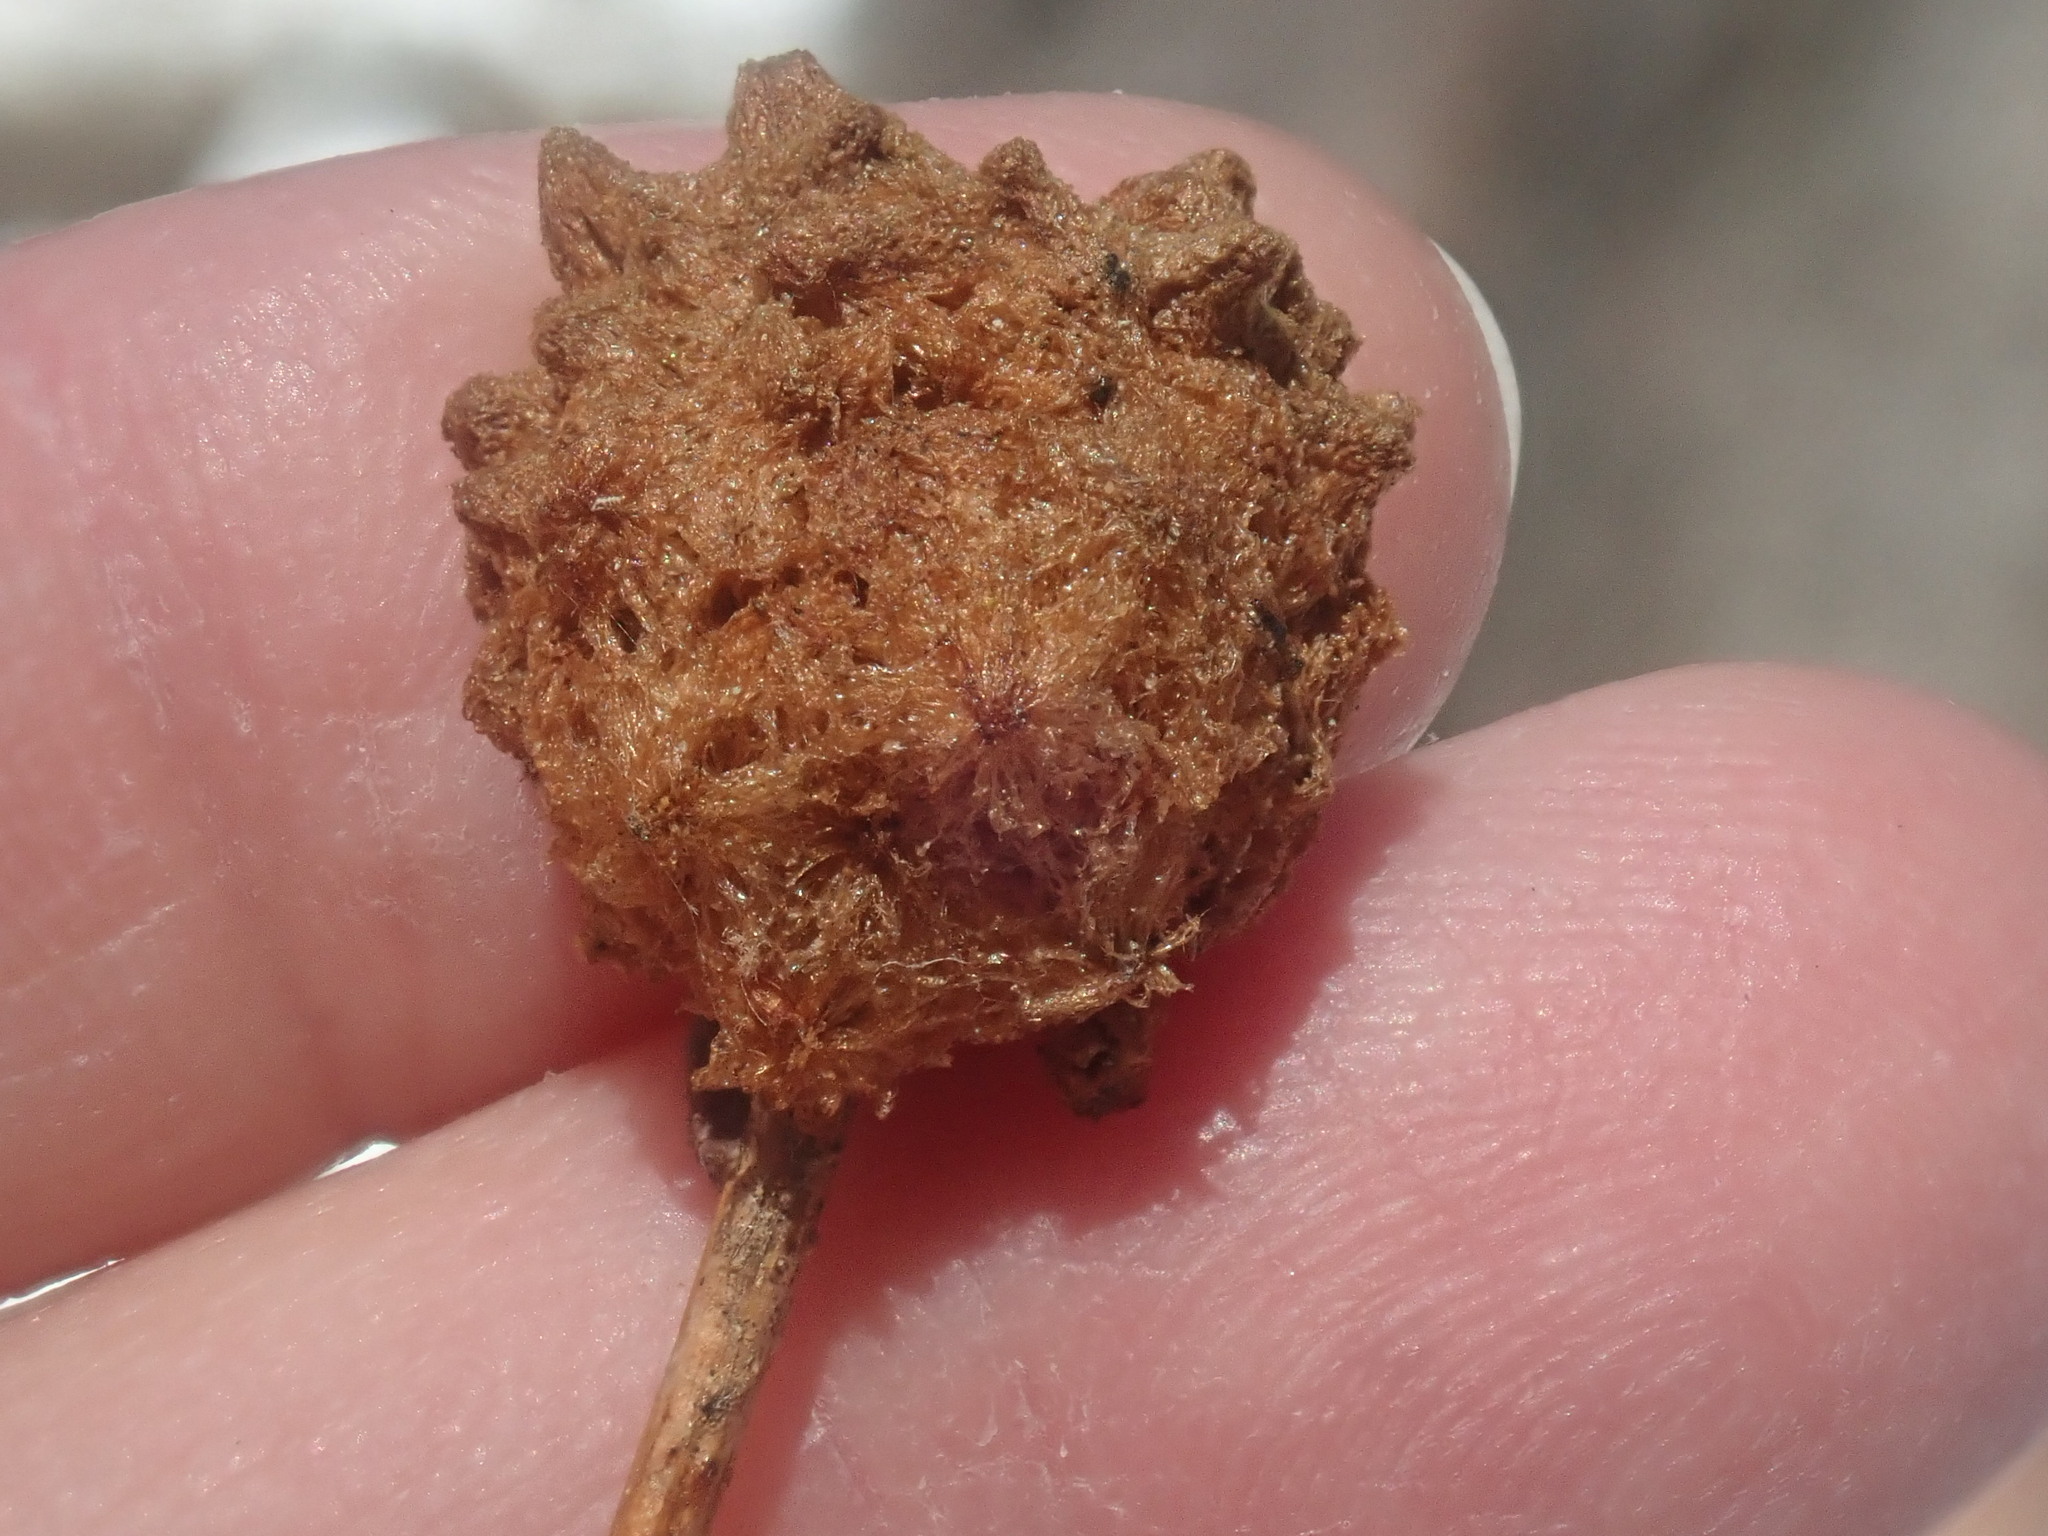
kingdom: Animalia
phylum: Arthropoda
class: Insecta
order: Hymenoptera
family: Cynipidae
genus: Callirhytis
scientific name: Callirhytis
